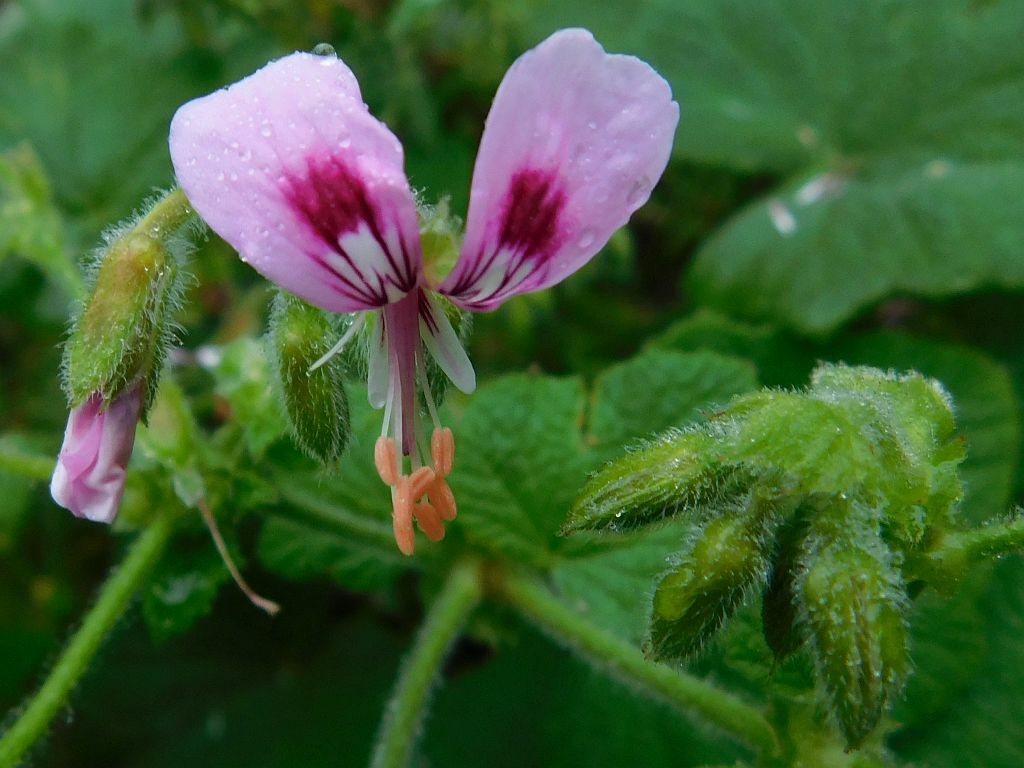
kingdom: Plantae
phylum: Tracheophyta
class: Magnoliopsida
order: Geraniales
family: Geraniaceae
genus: Pelargonium
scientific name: Pelargonium papilionaceum
